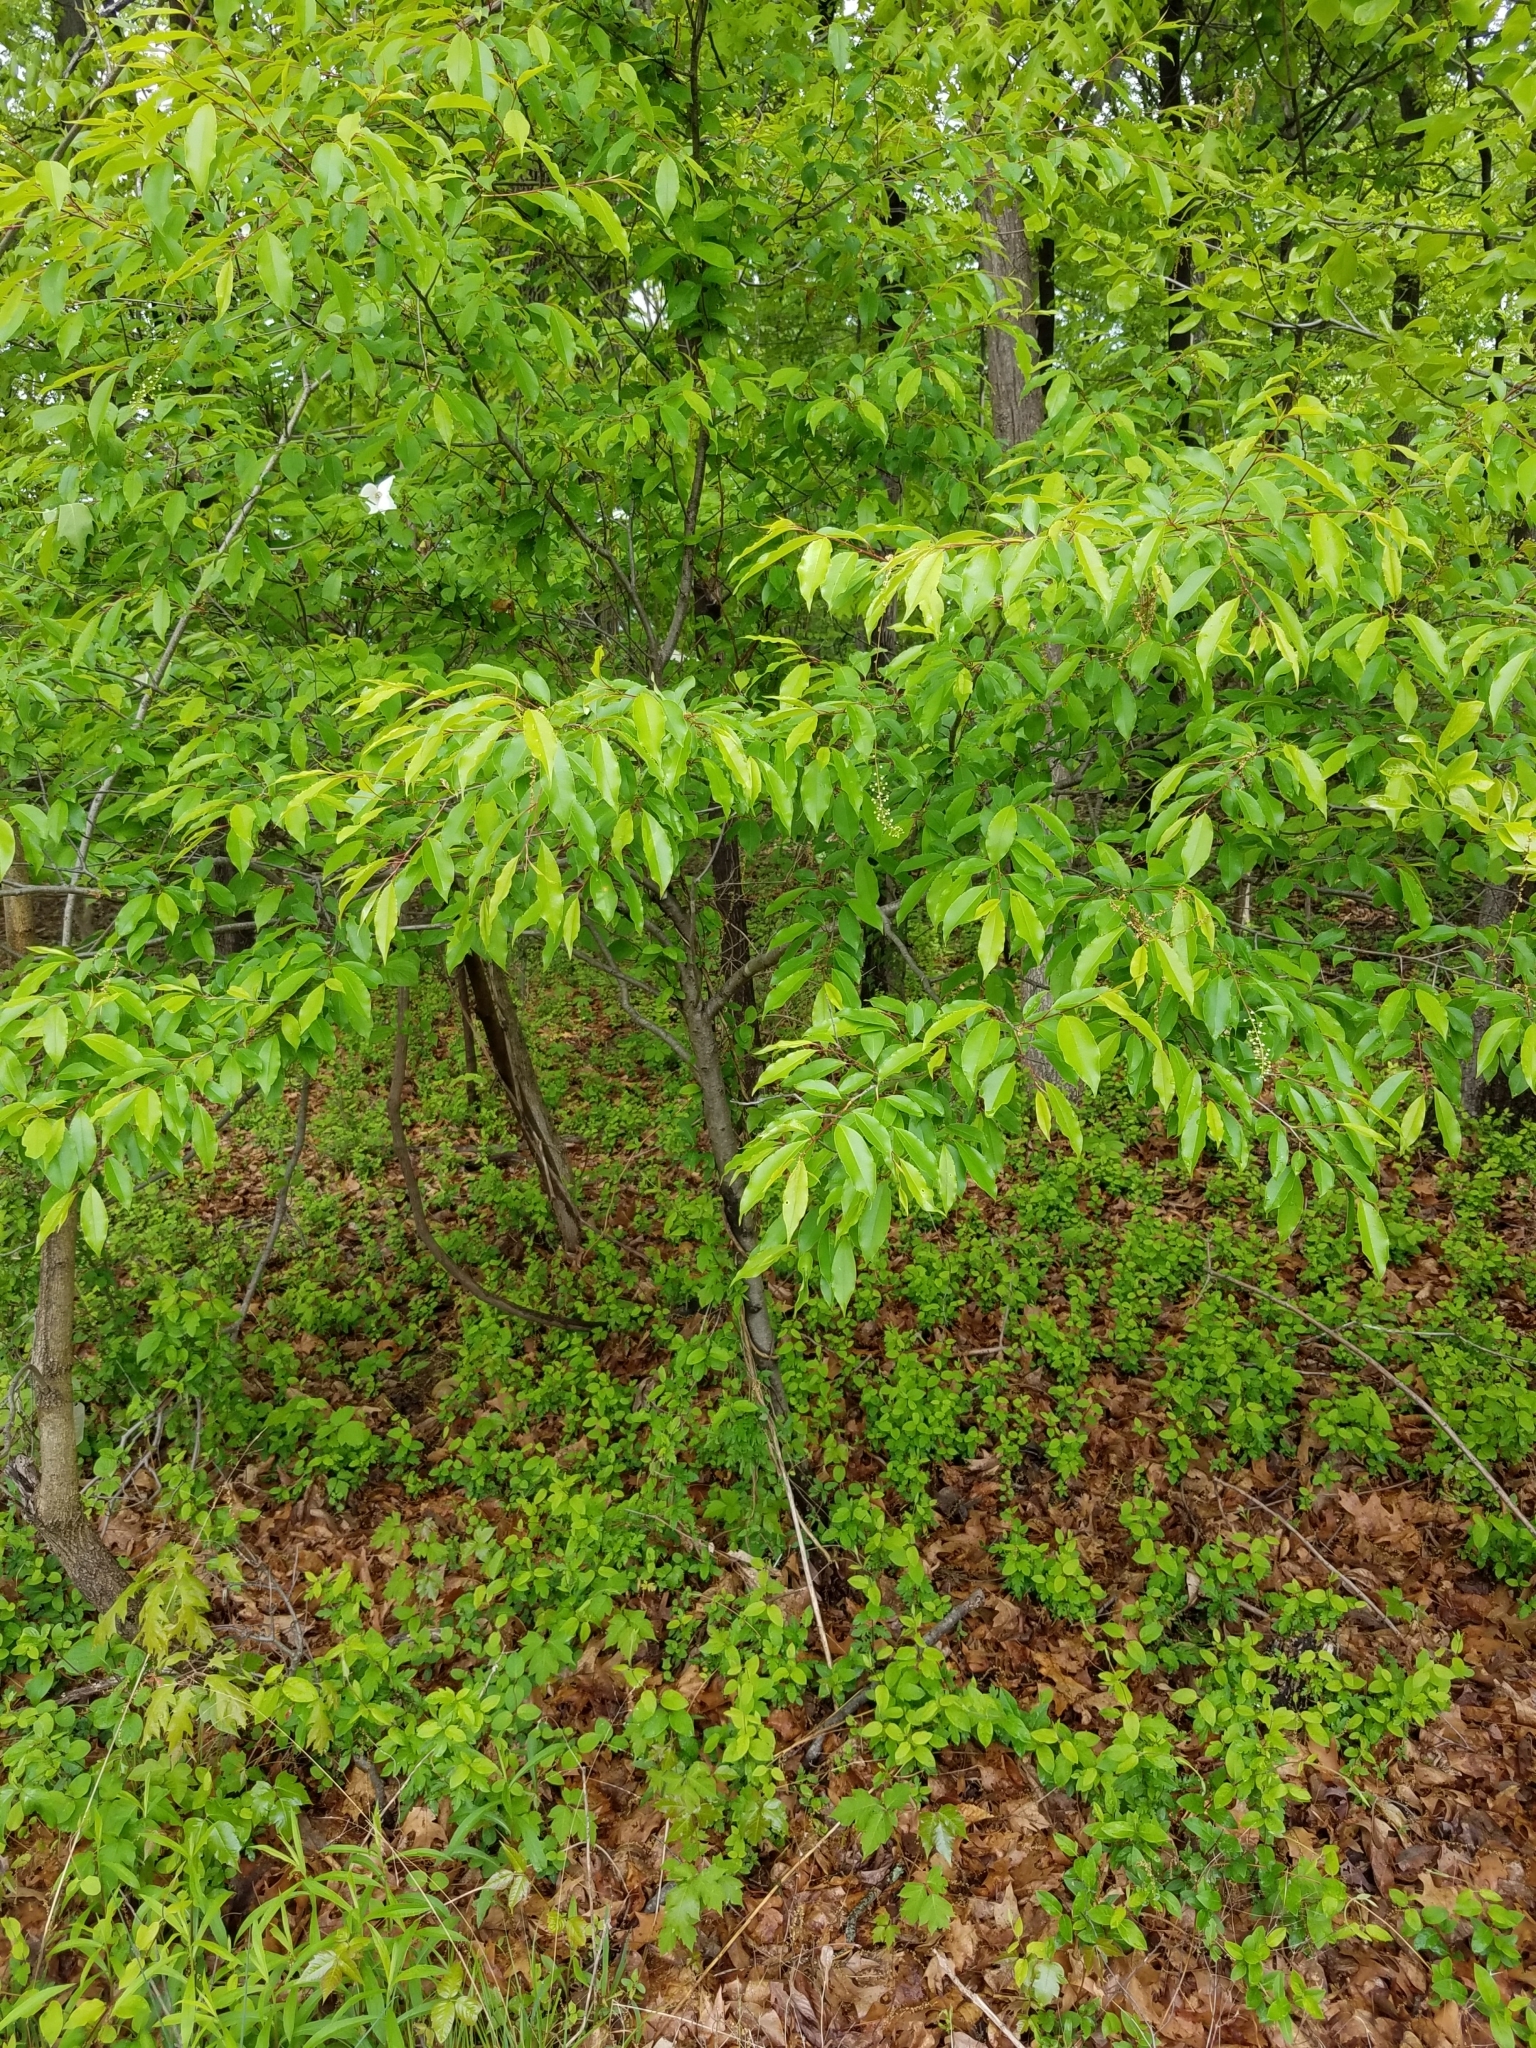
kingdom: Plantae
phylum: Tracheophyta
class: Magnoliopsida
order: Rosales
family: Rosaceae
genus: Prunus
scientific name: Prunus serotina
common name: Black cherry
